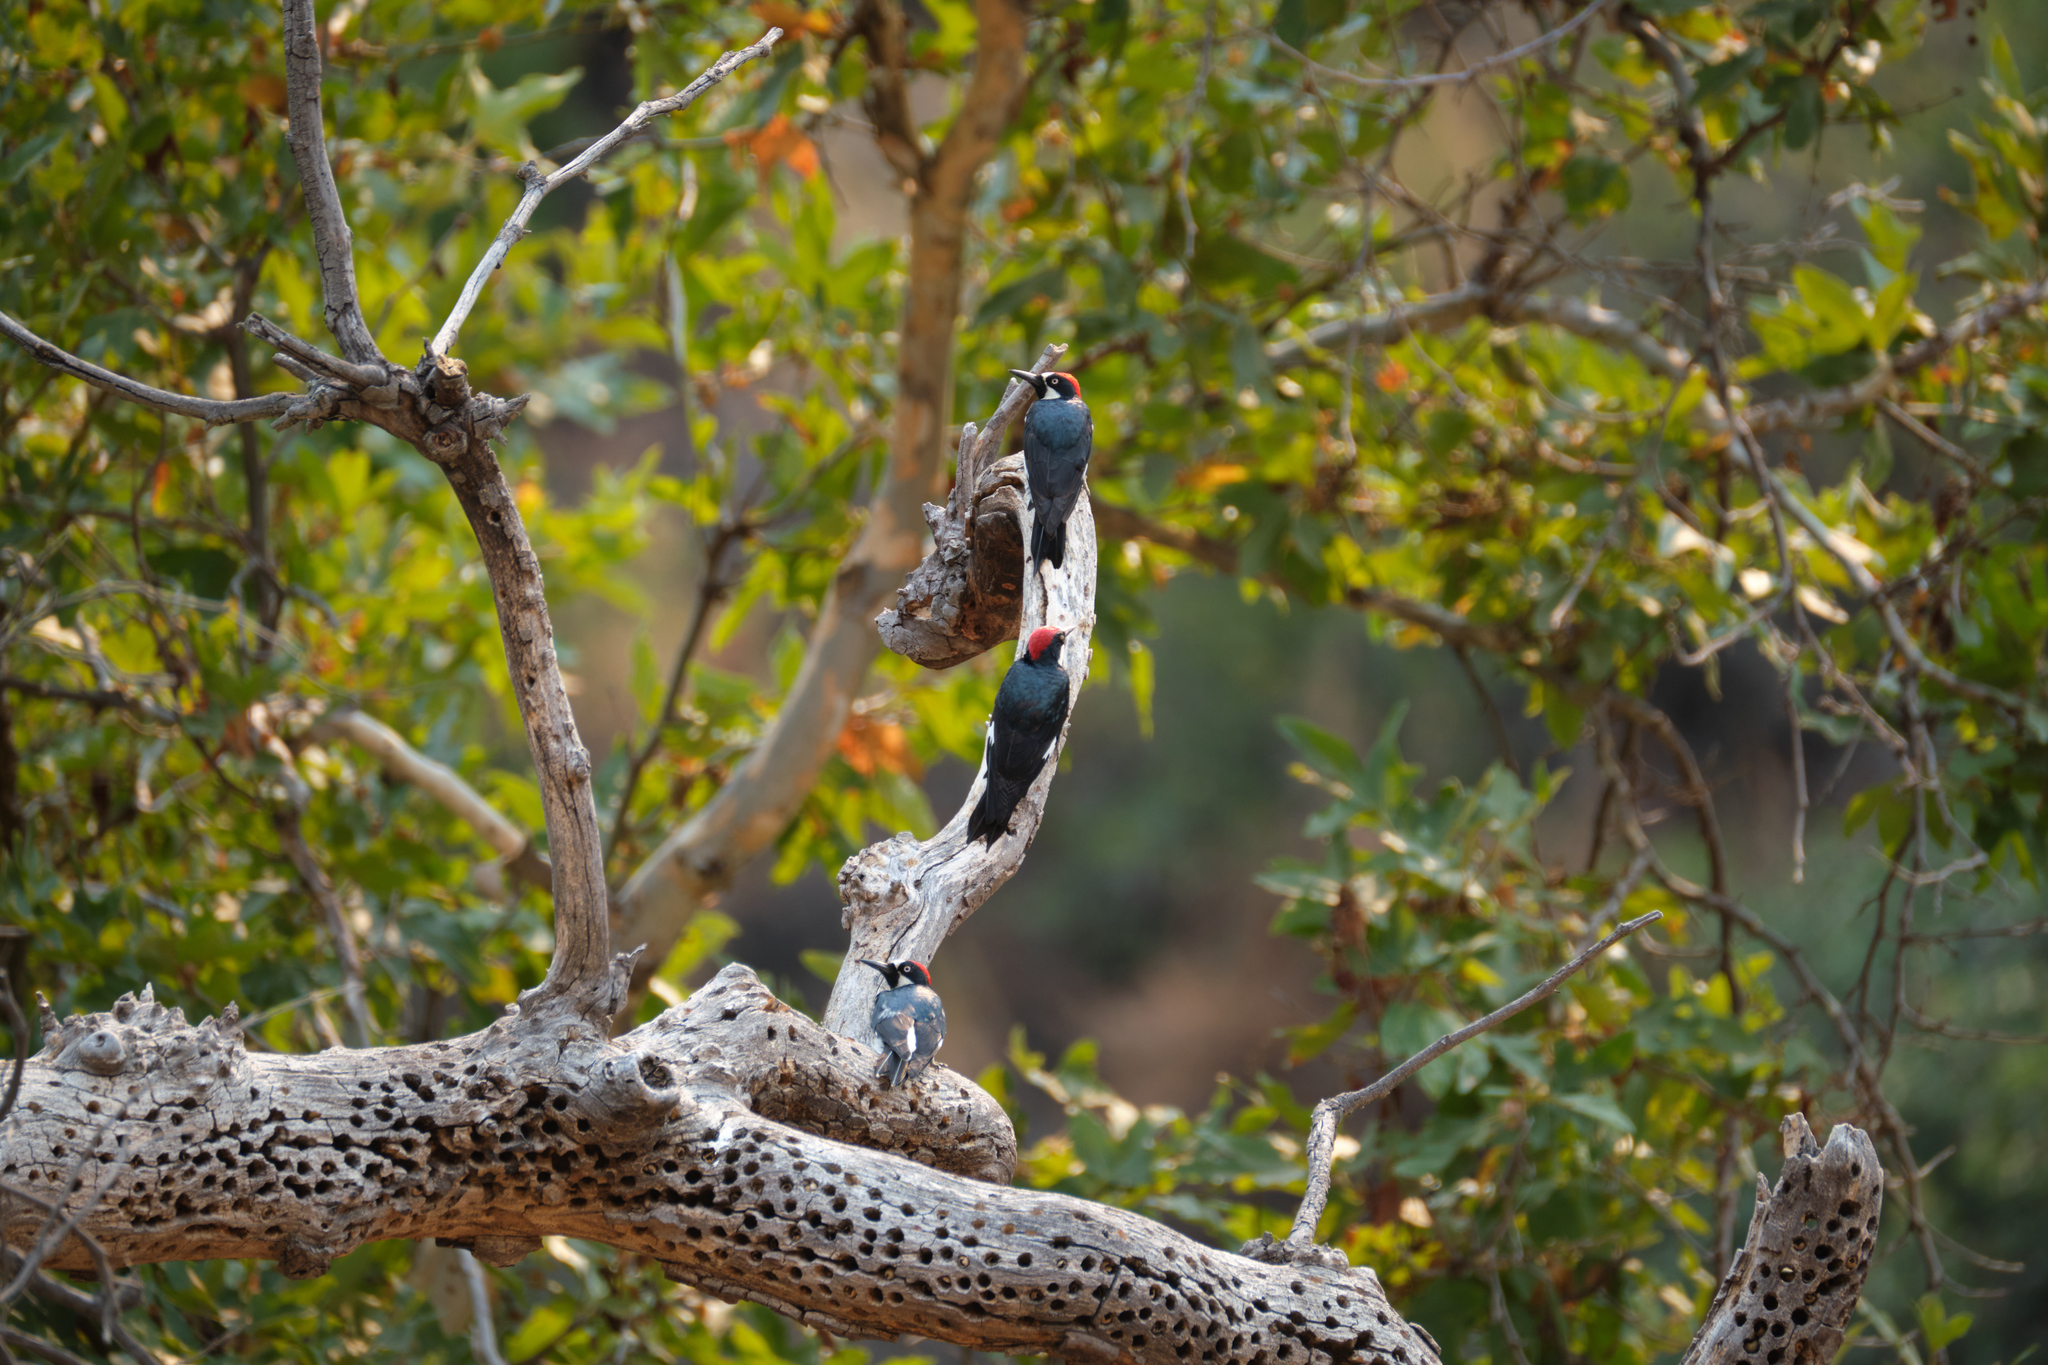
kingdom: Animalia
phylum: Chordata
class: Aves
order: Piciformes
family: Picidae
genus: Melanerpes
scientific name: Melanerpes formicivorus
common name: Acorn woodpecker
